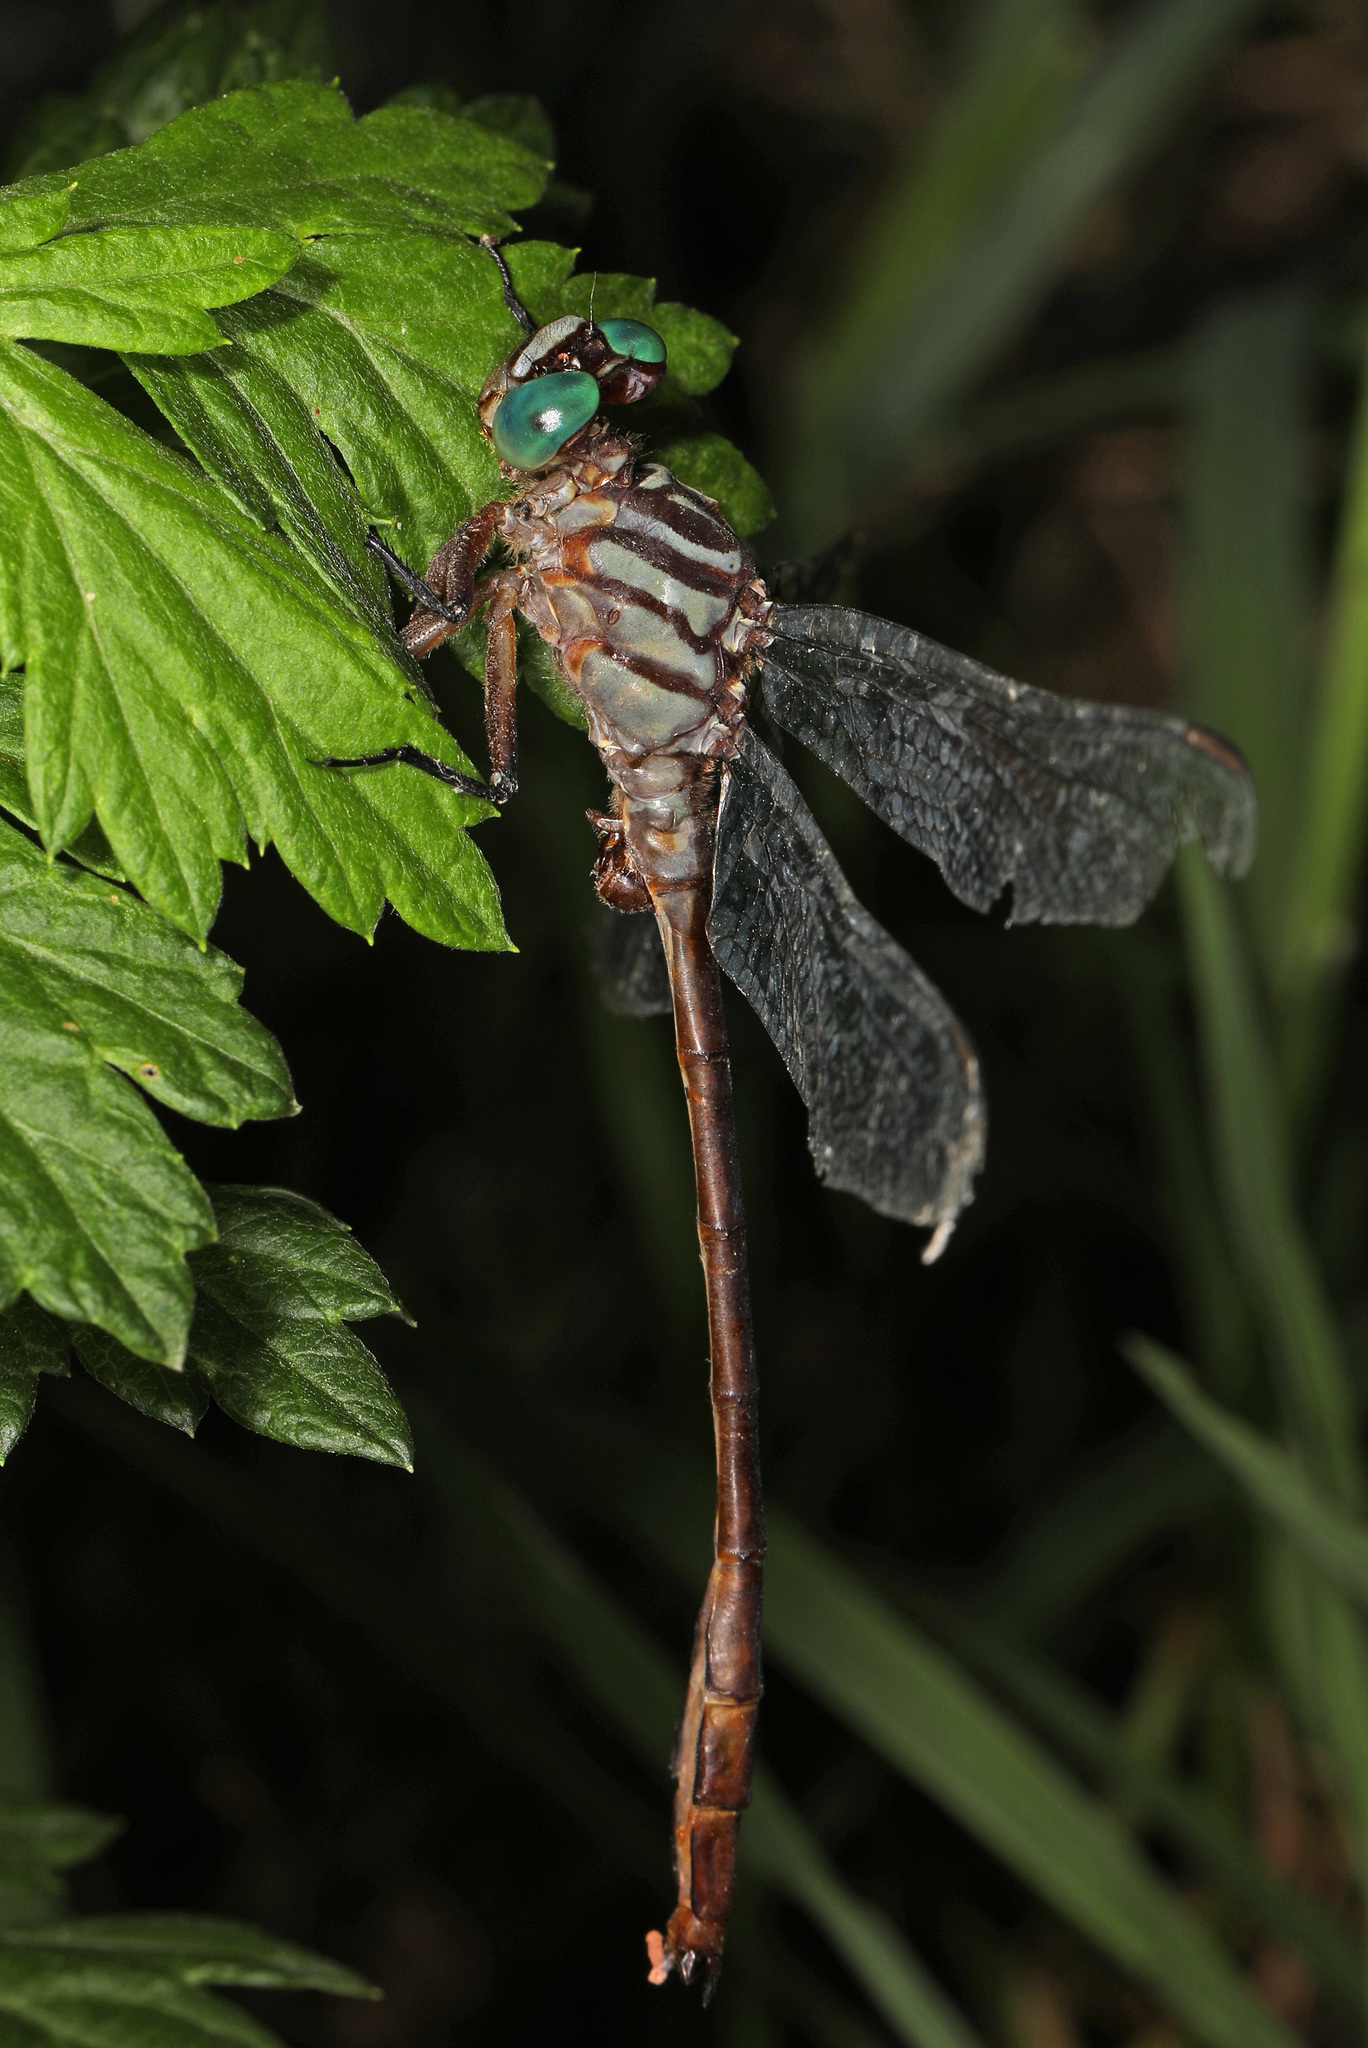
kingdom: Animalia
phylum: Arthropoda
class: Insecta
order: Odonata
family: Gomphidae
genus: Stylurus
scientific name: Stylurus plagiatus
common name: Russet-tipped clubtail
